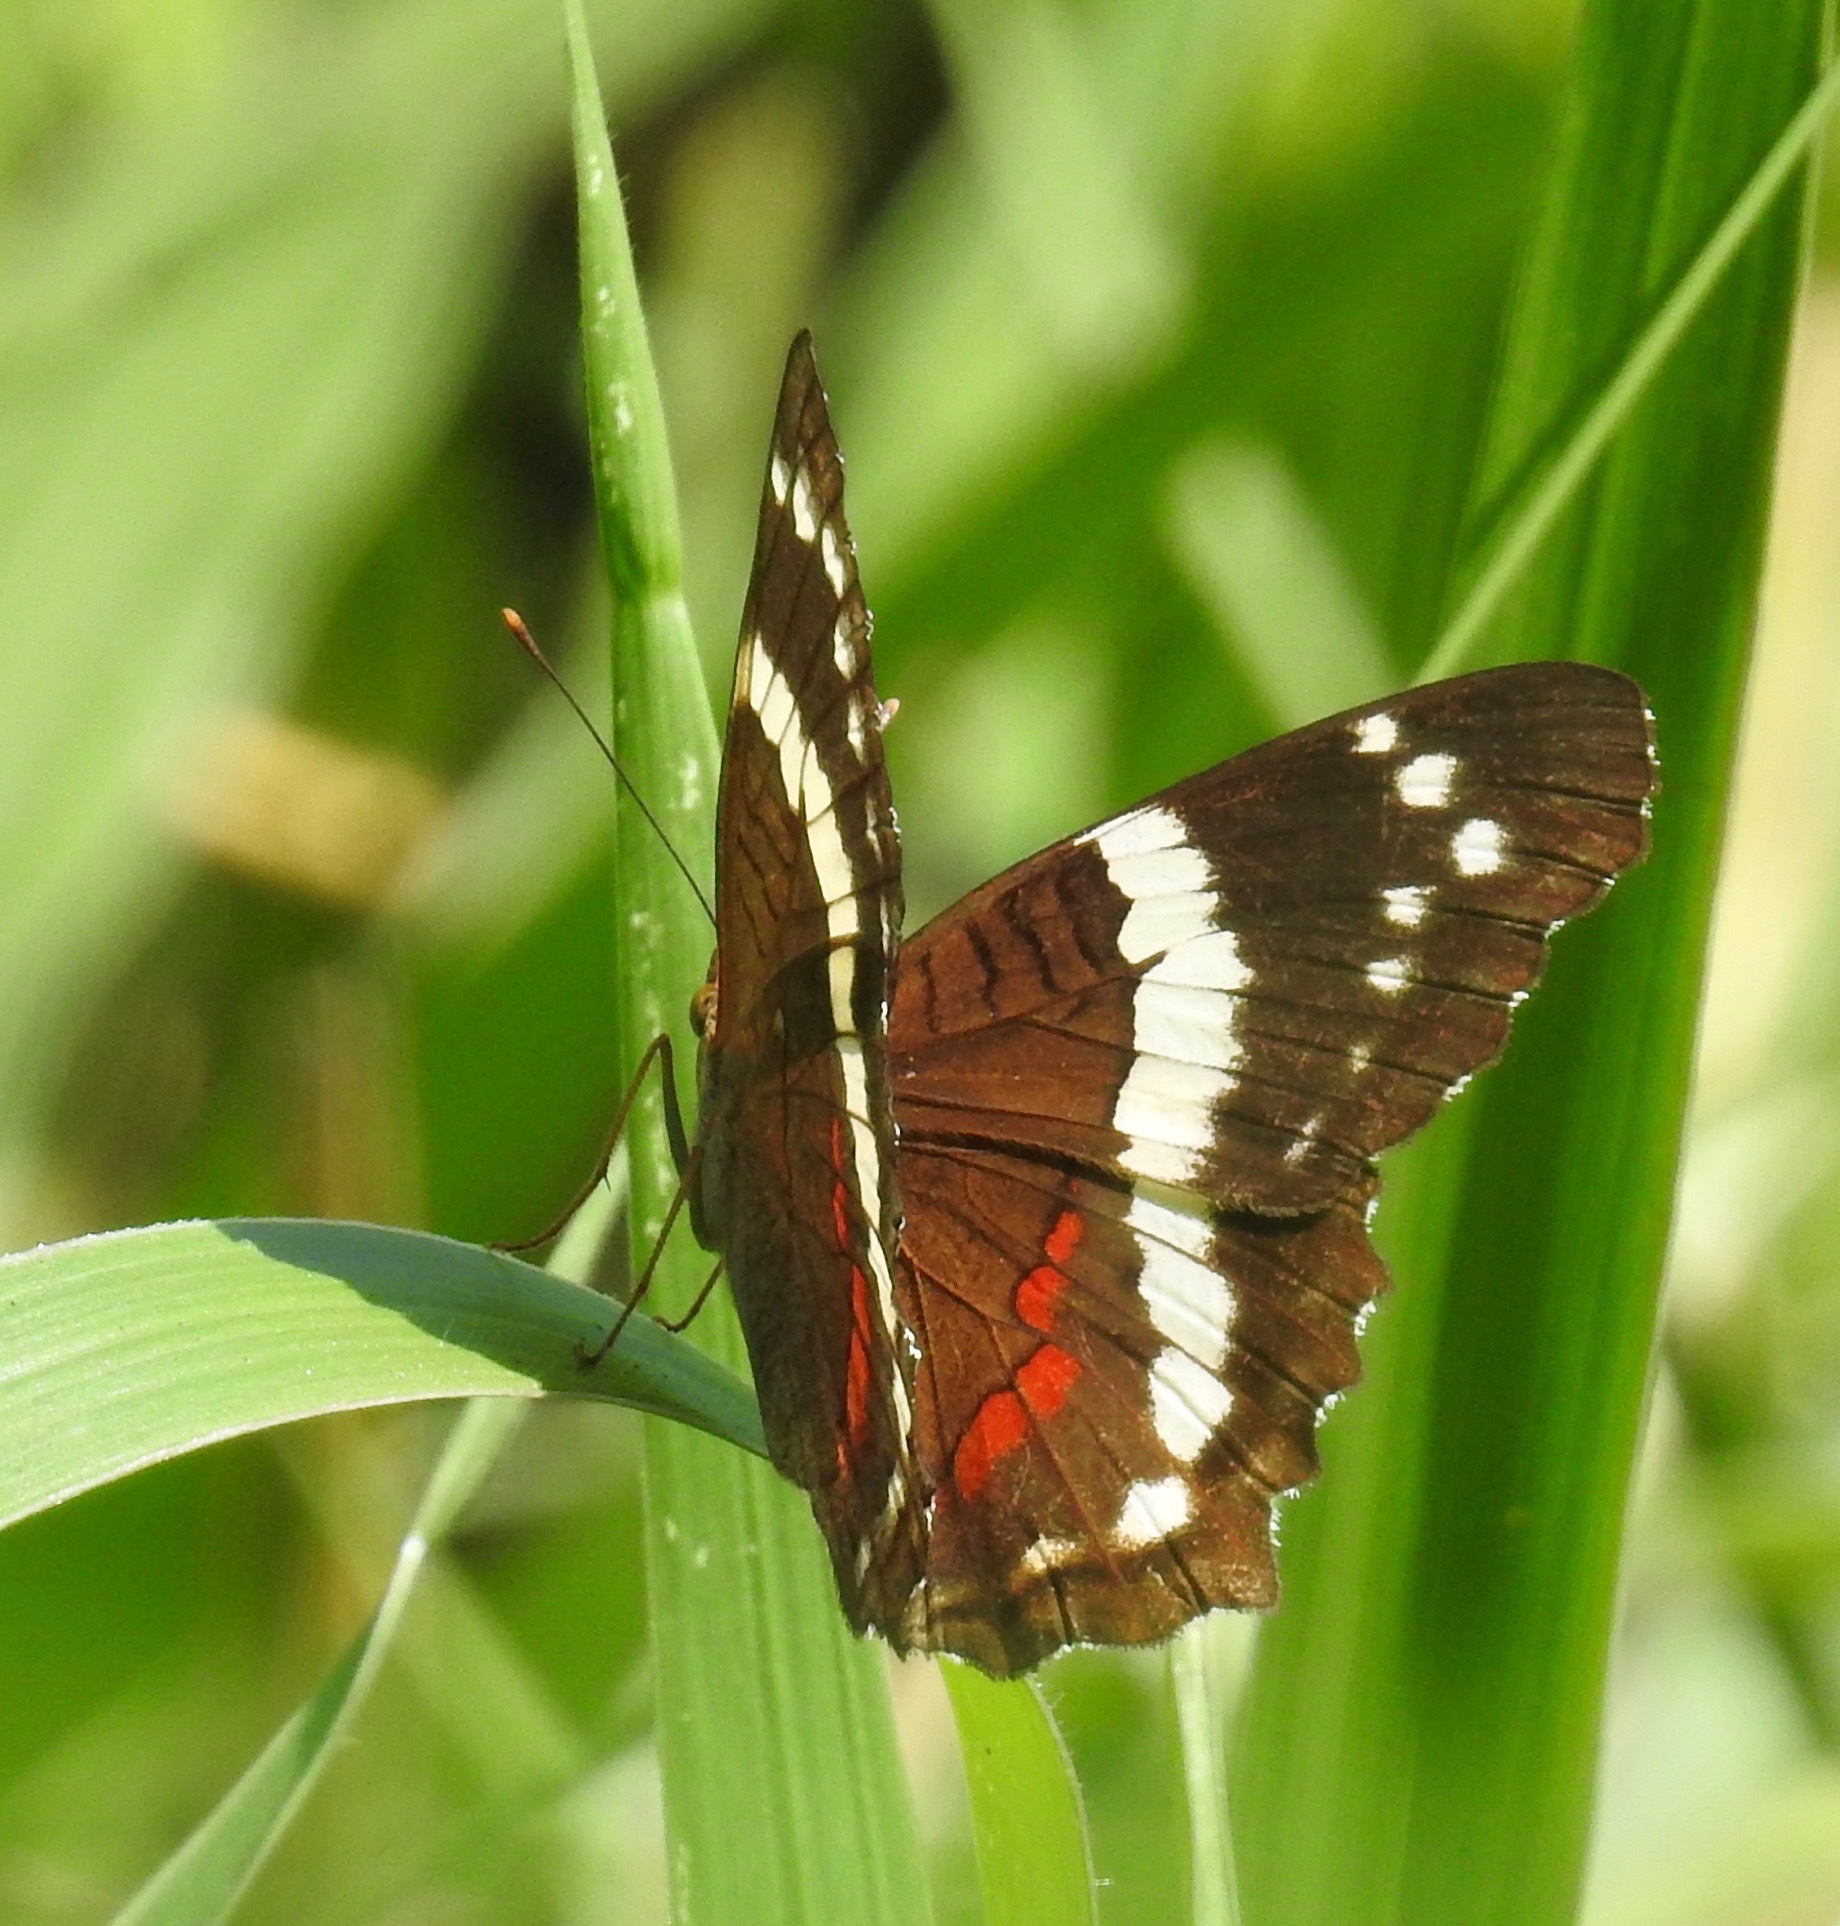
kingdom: Animalia
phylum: Arthropoda
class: Insecta
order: Lepidoptera
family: Nymphalidae
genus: Anartia
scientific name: Anartia fatima
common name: Banded peacock
